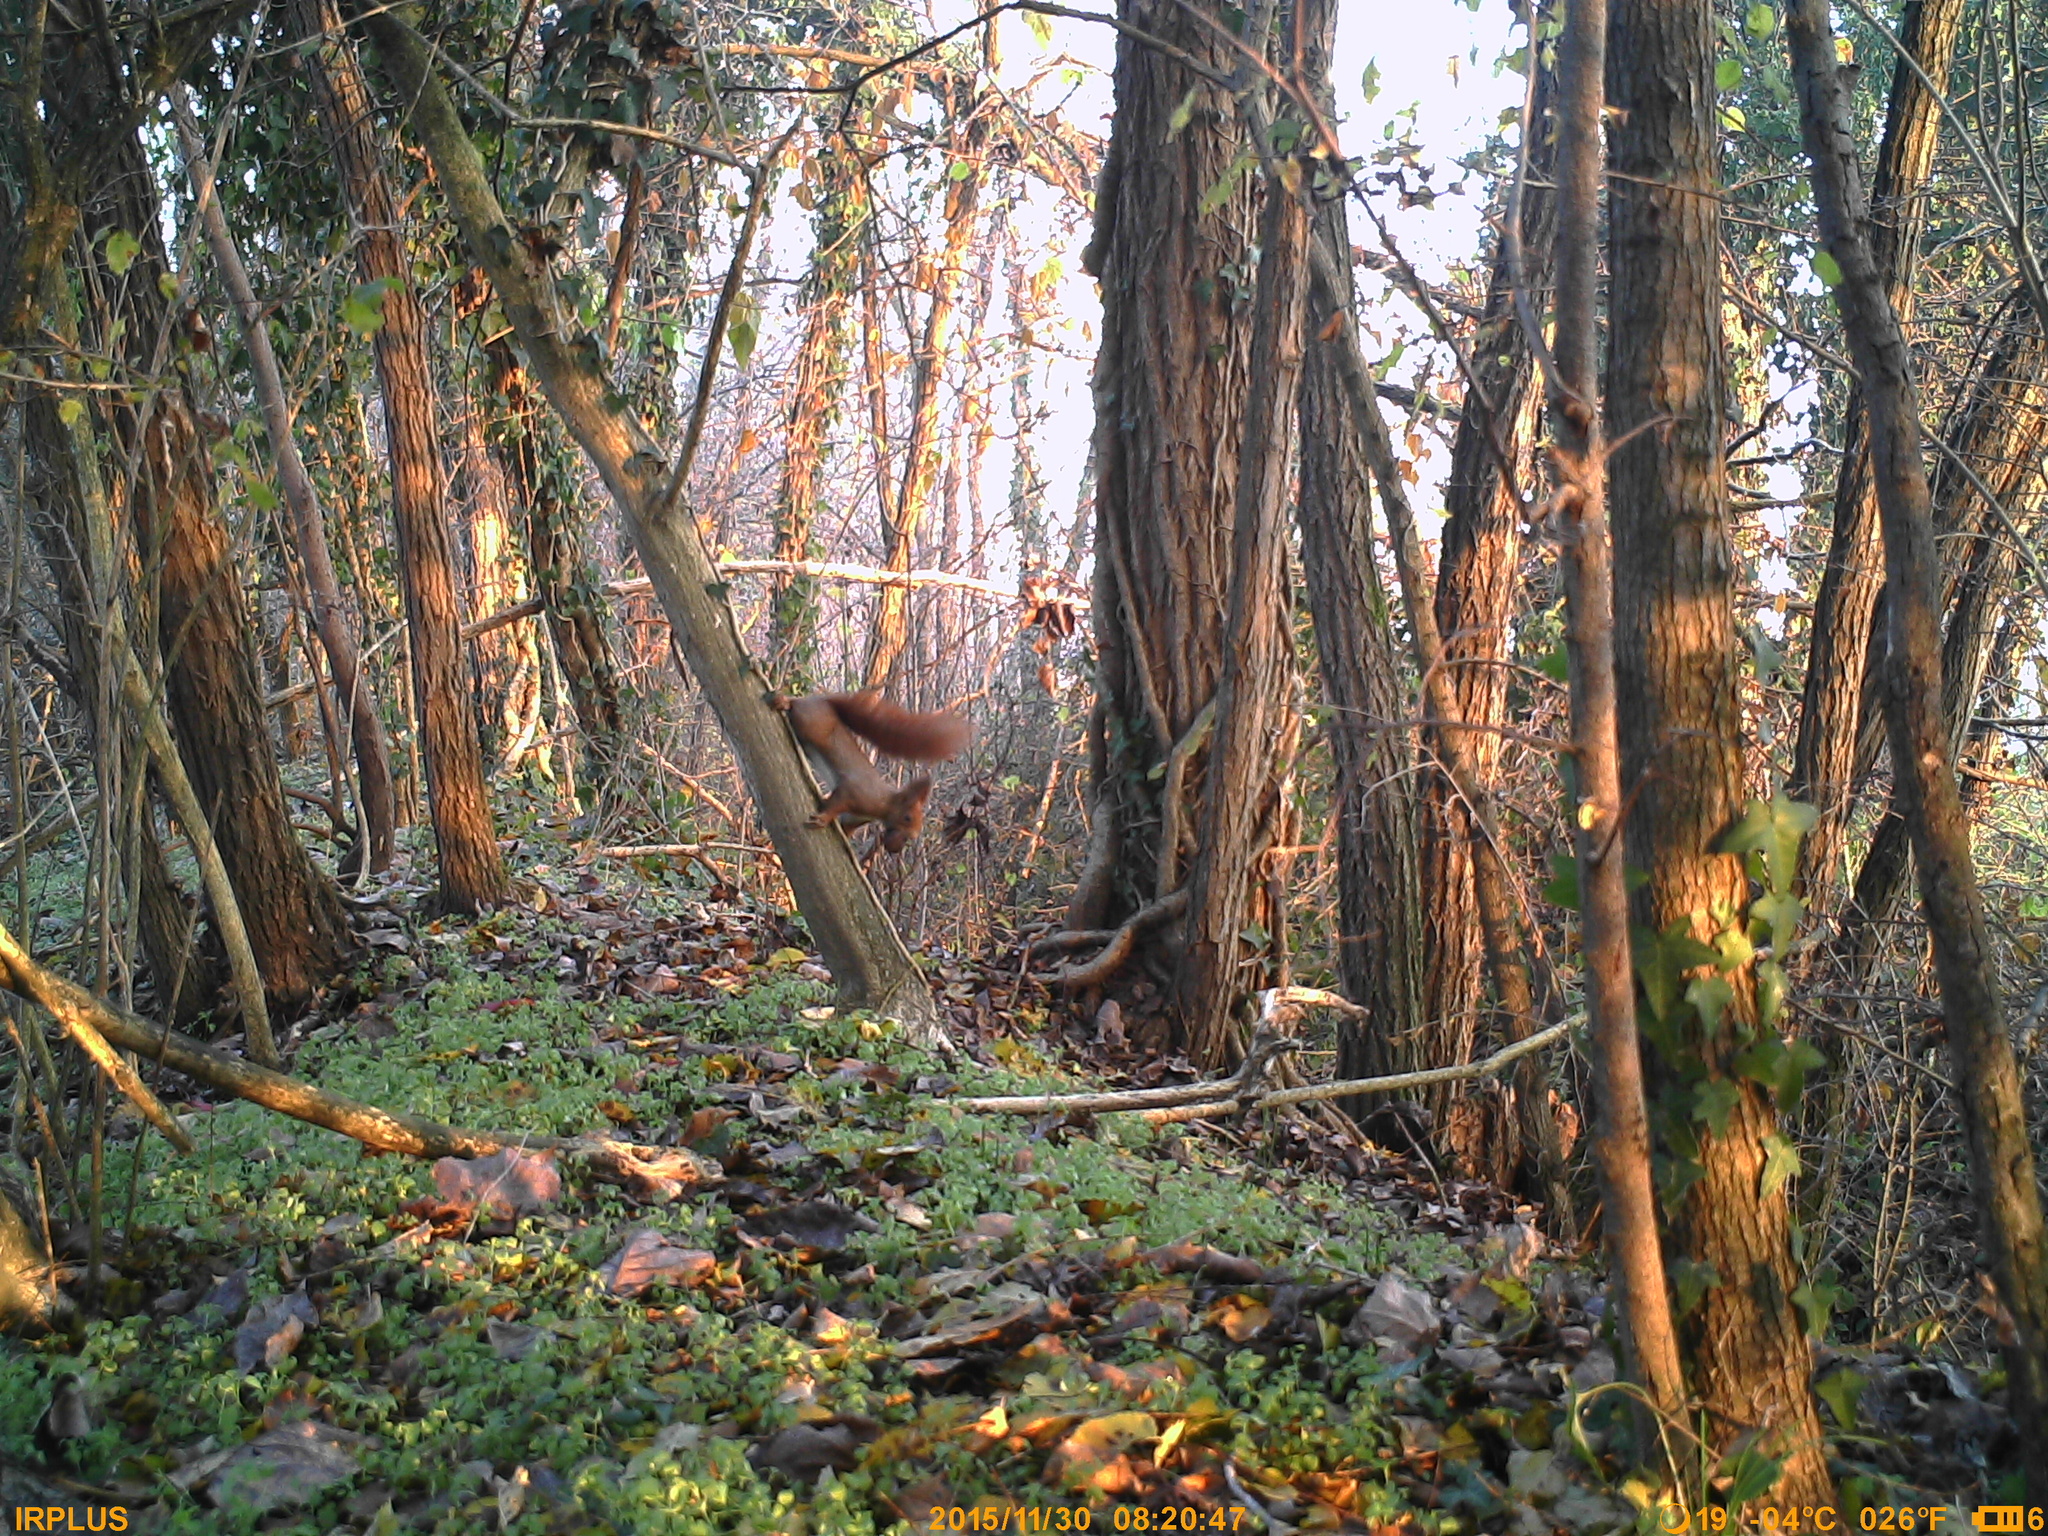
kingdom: Animalia
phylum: Chordata
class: Mammalia
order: Rodentia
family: Sciuridae
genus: Sciurus
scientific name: Sciurus vulgaris
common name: Eurasian red squirrel
